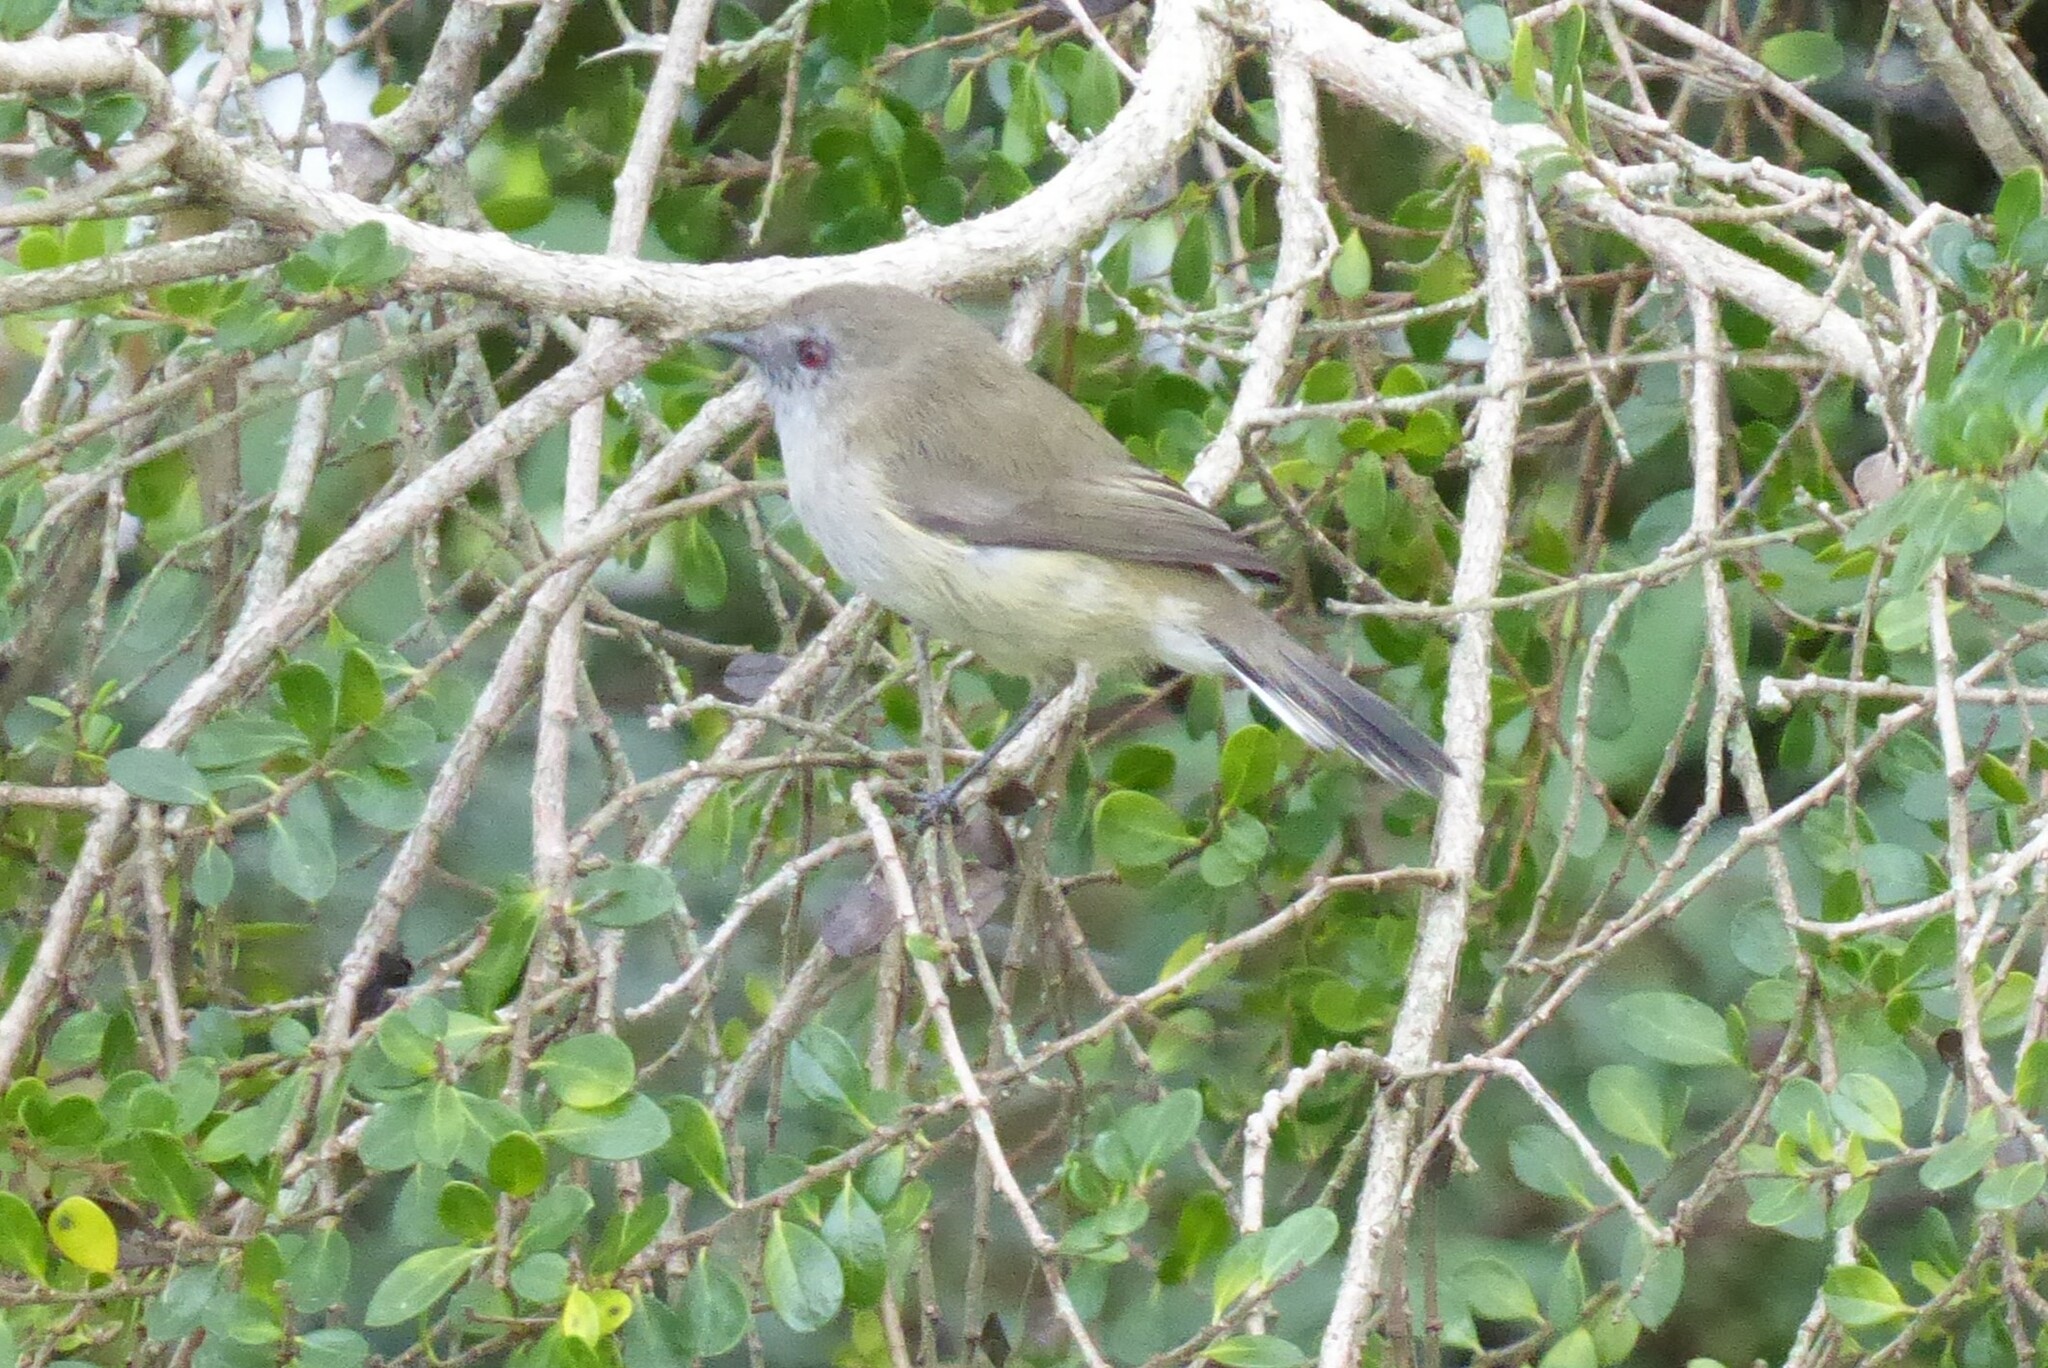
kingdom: Animalia
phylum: Chordata
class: Aves
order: Passeriformes
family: Acanthizidae
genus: Gerygone
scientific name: Gerygone igata
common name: Grey gerygone
